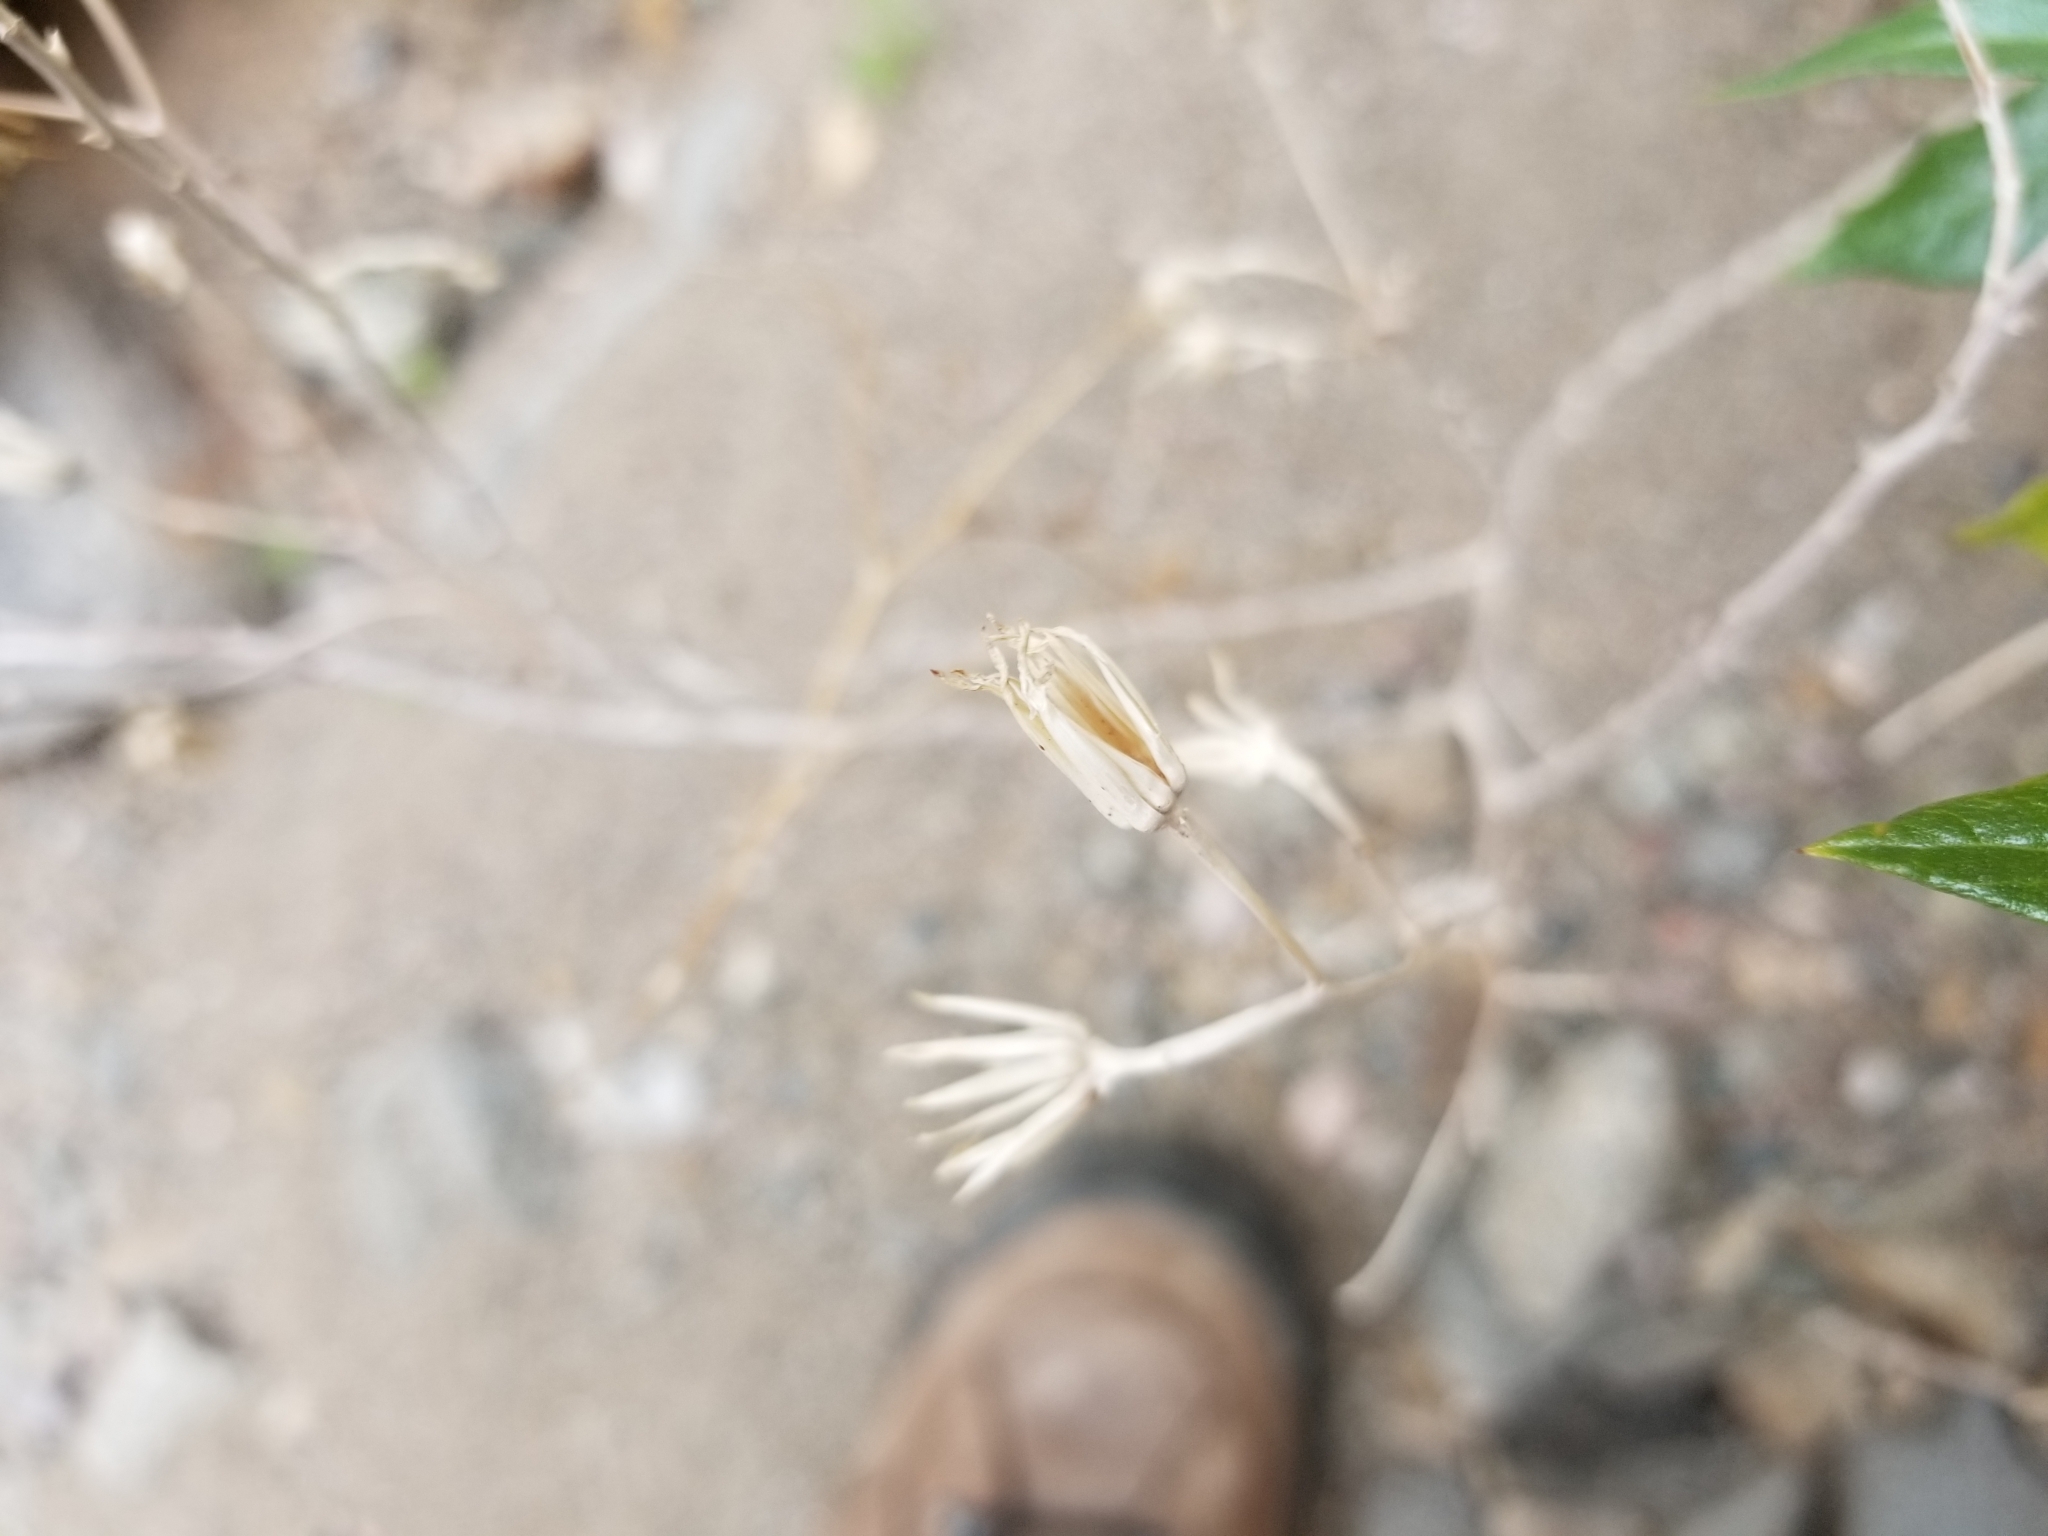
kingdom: Plantae
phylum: Tracheophyta
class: Magnoliopsida
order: Asterales
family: Asteraceae
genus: Trixis
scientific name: Trixis californica
